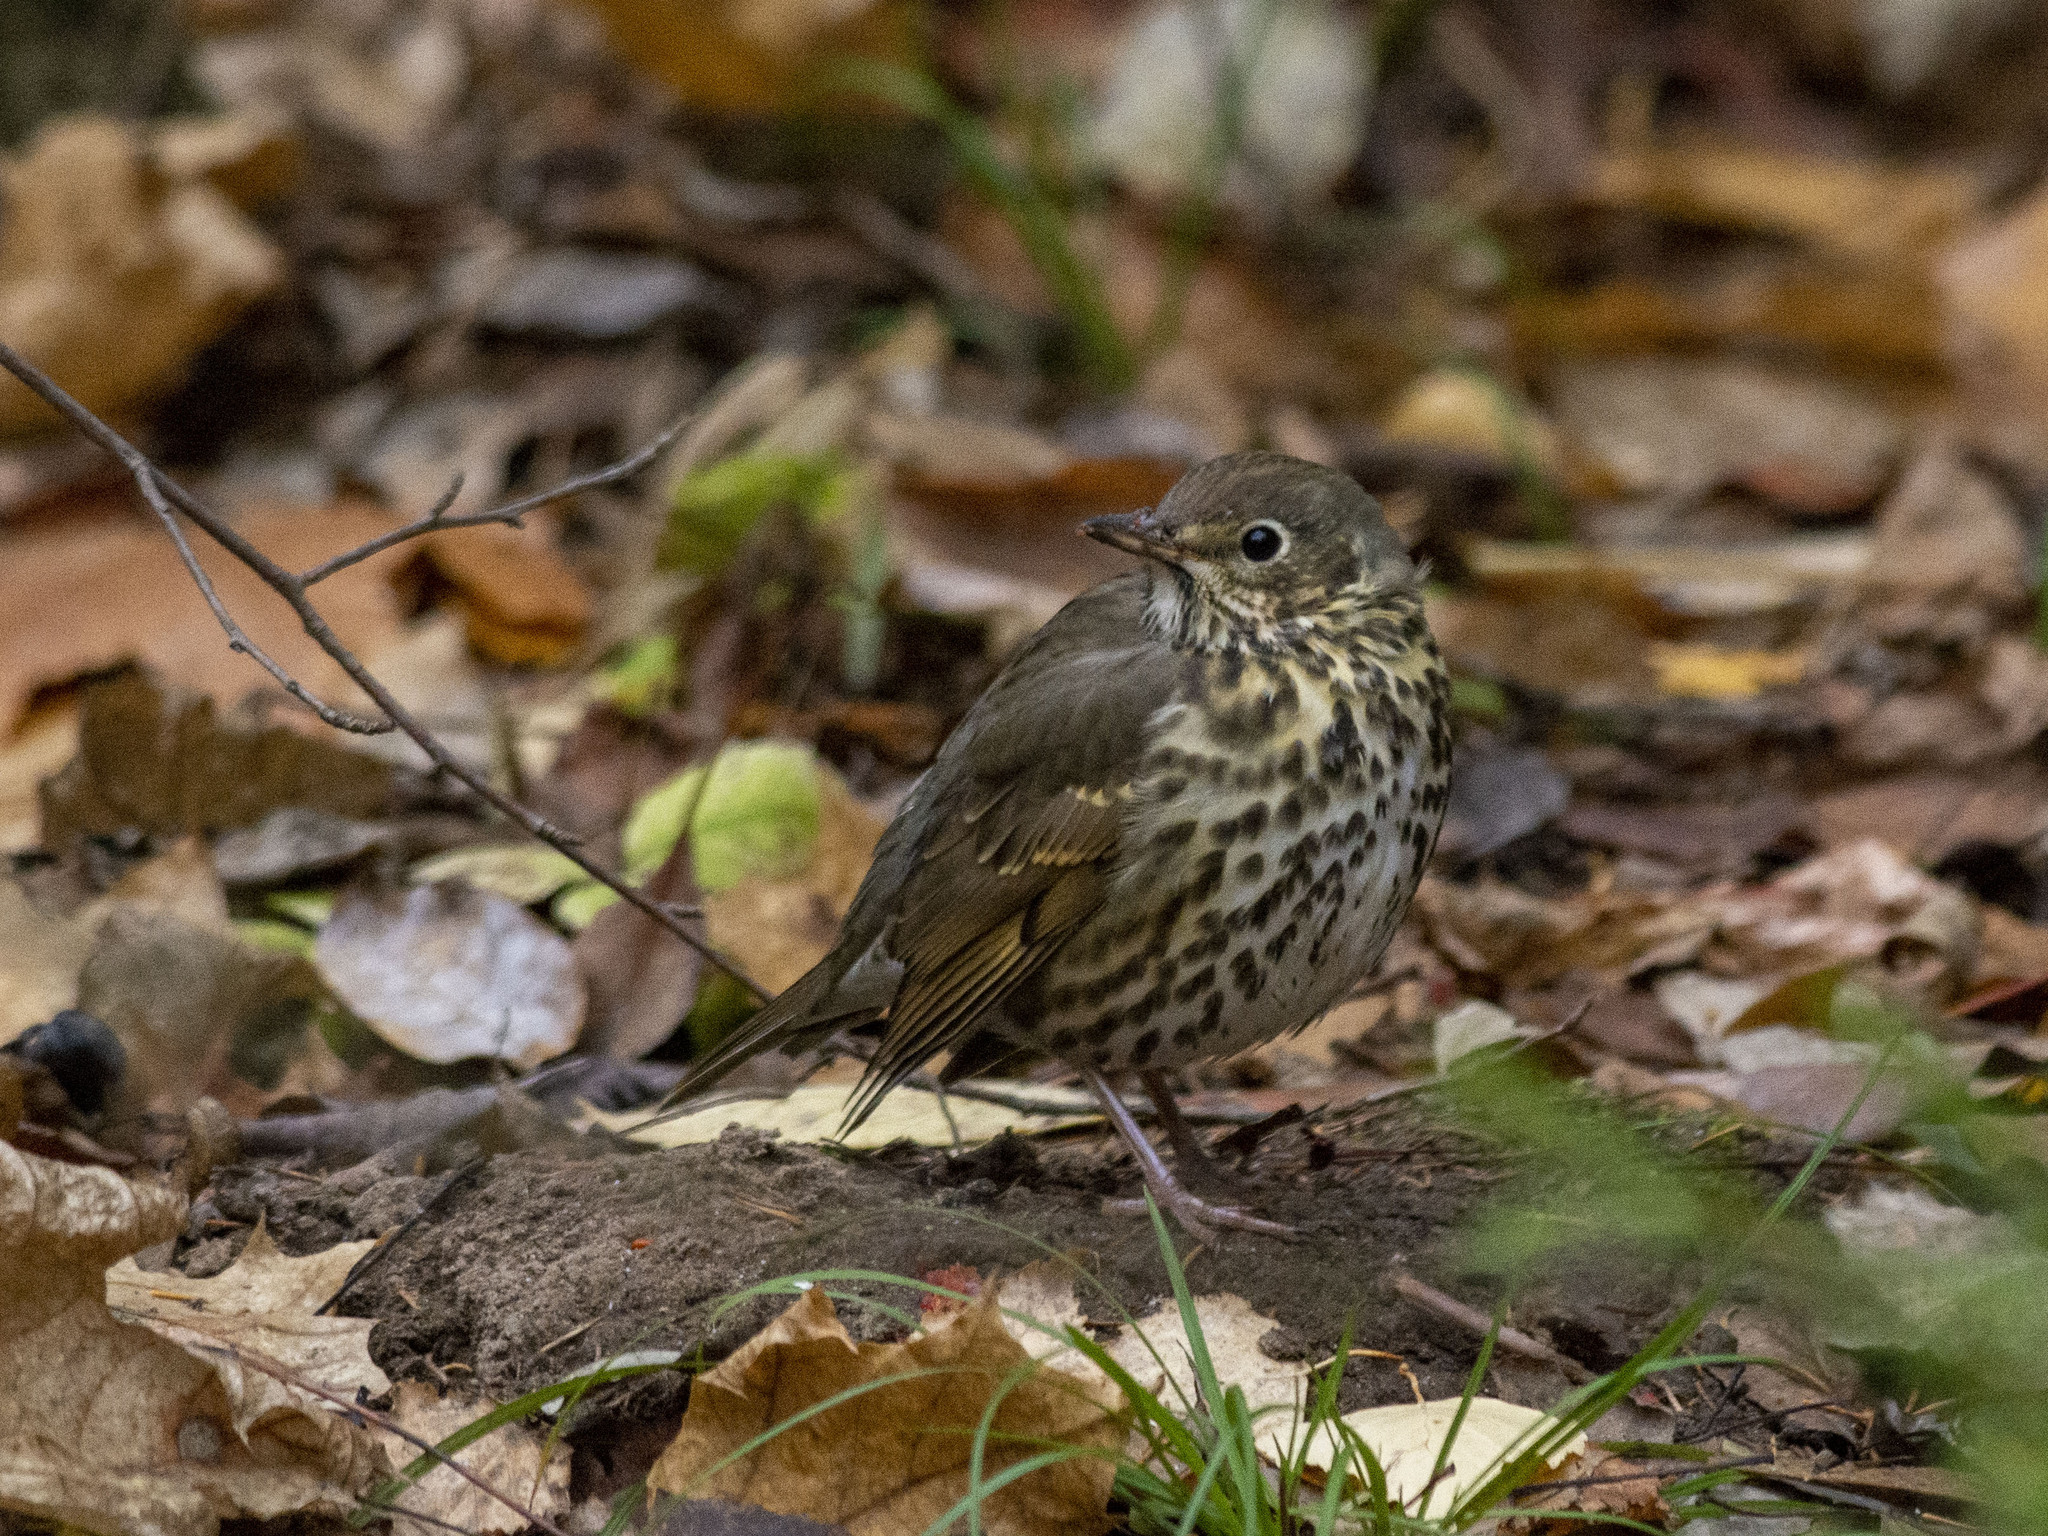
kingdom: Animalia
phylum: Chordata
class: Aves
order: Passeriformes
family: Turdidae
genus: Turdus
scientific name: Turdus philomelos
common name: Song thrush
